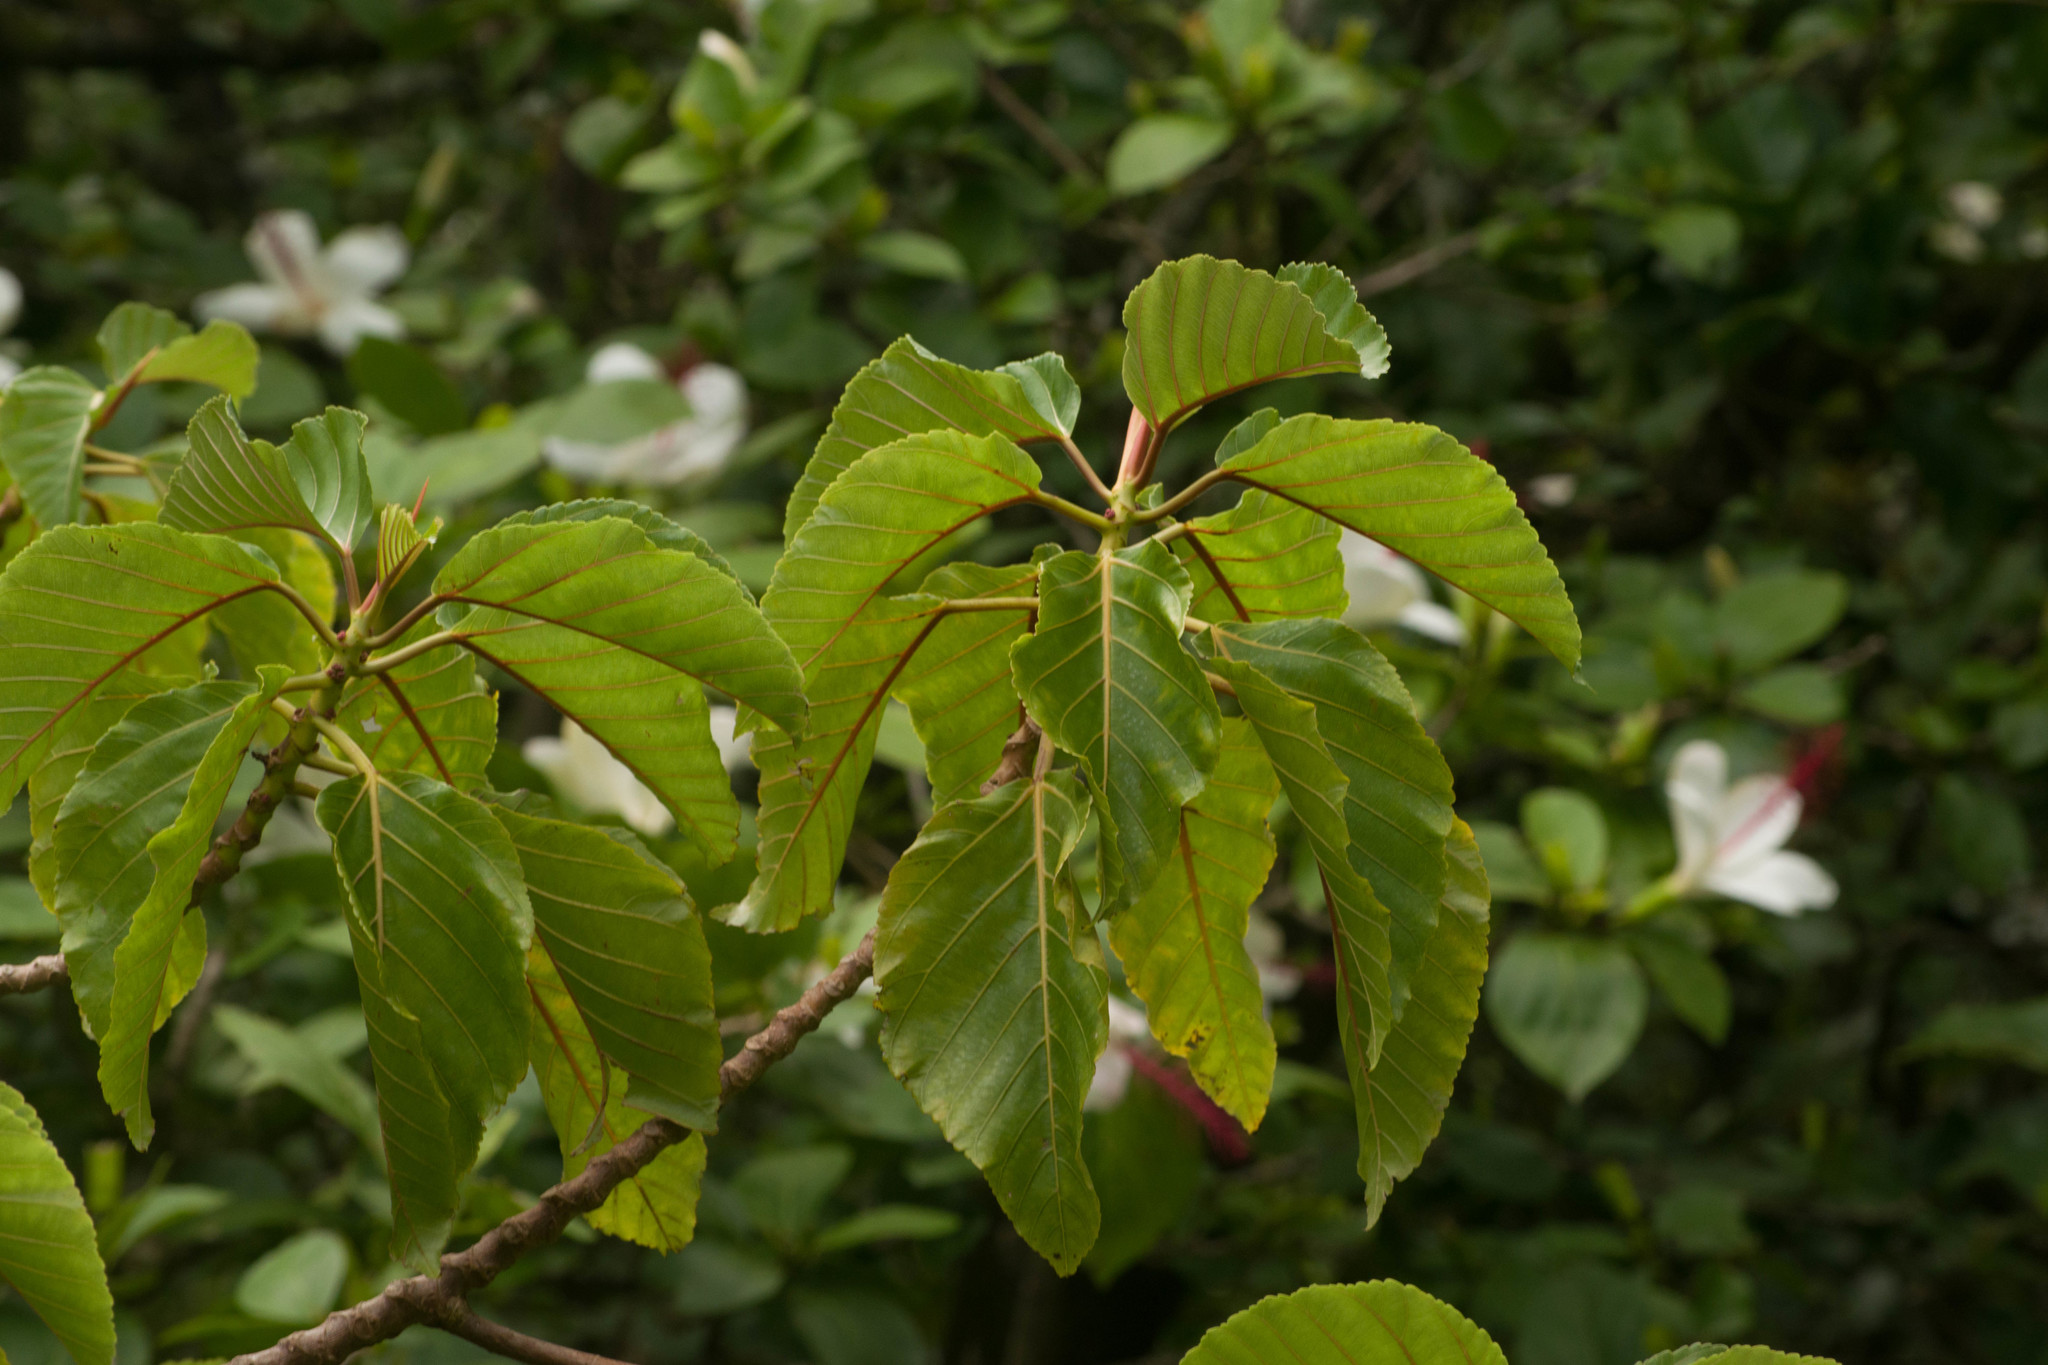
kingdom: Plantae
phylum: Tracheophyta
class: Magnoliopsida
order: Rosales
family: Urticaceae
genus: Touchardia
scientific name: Touchardia oahuensis
